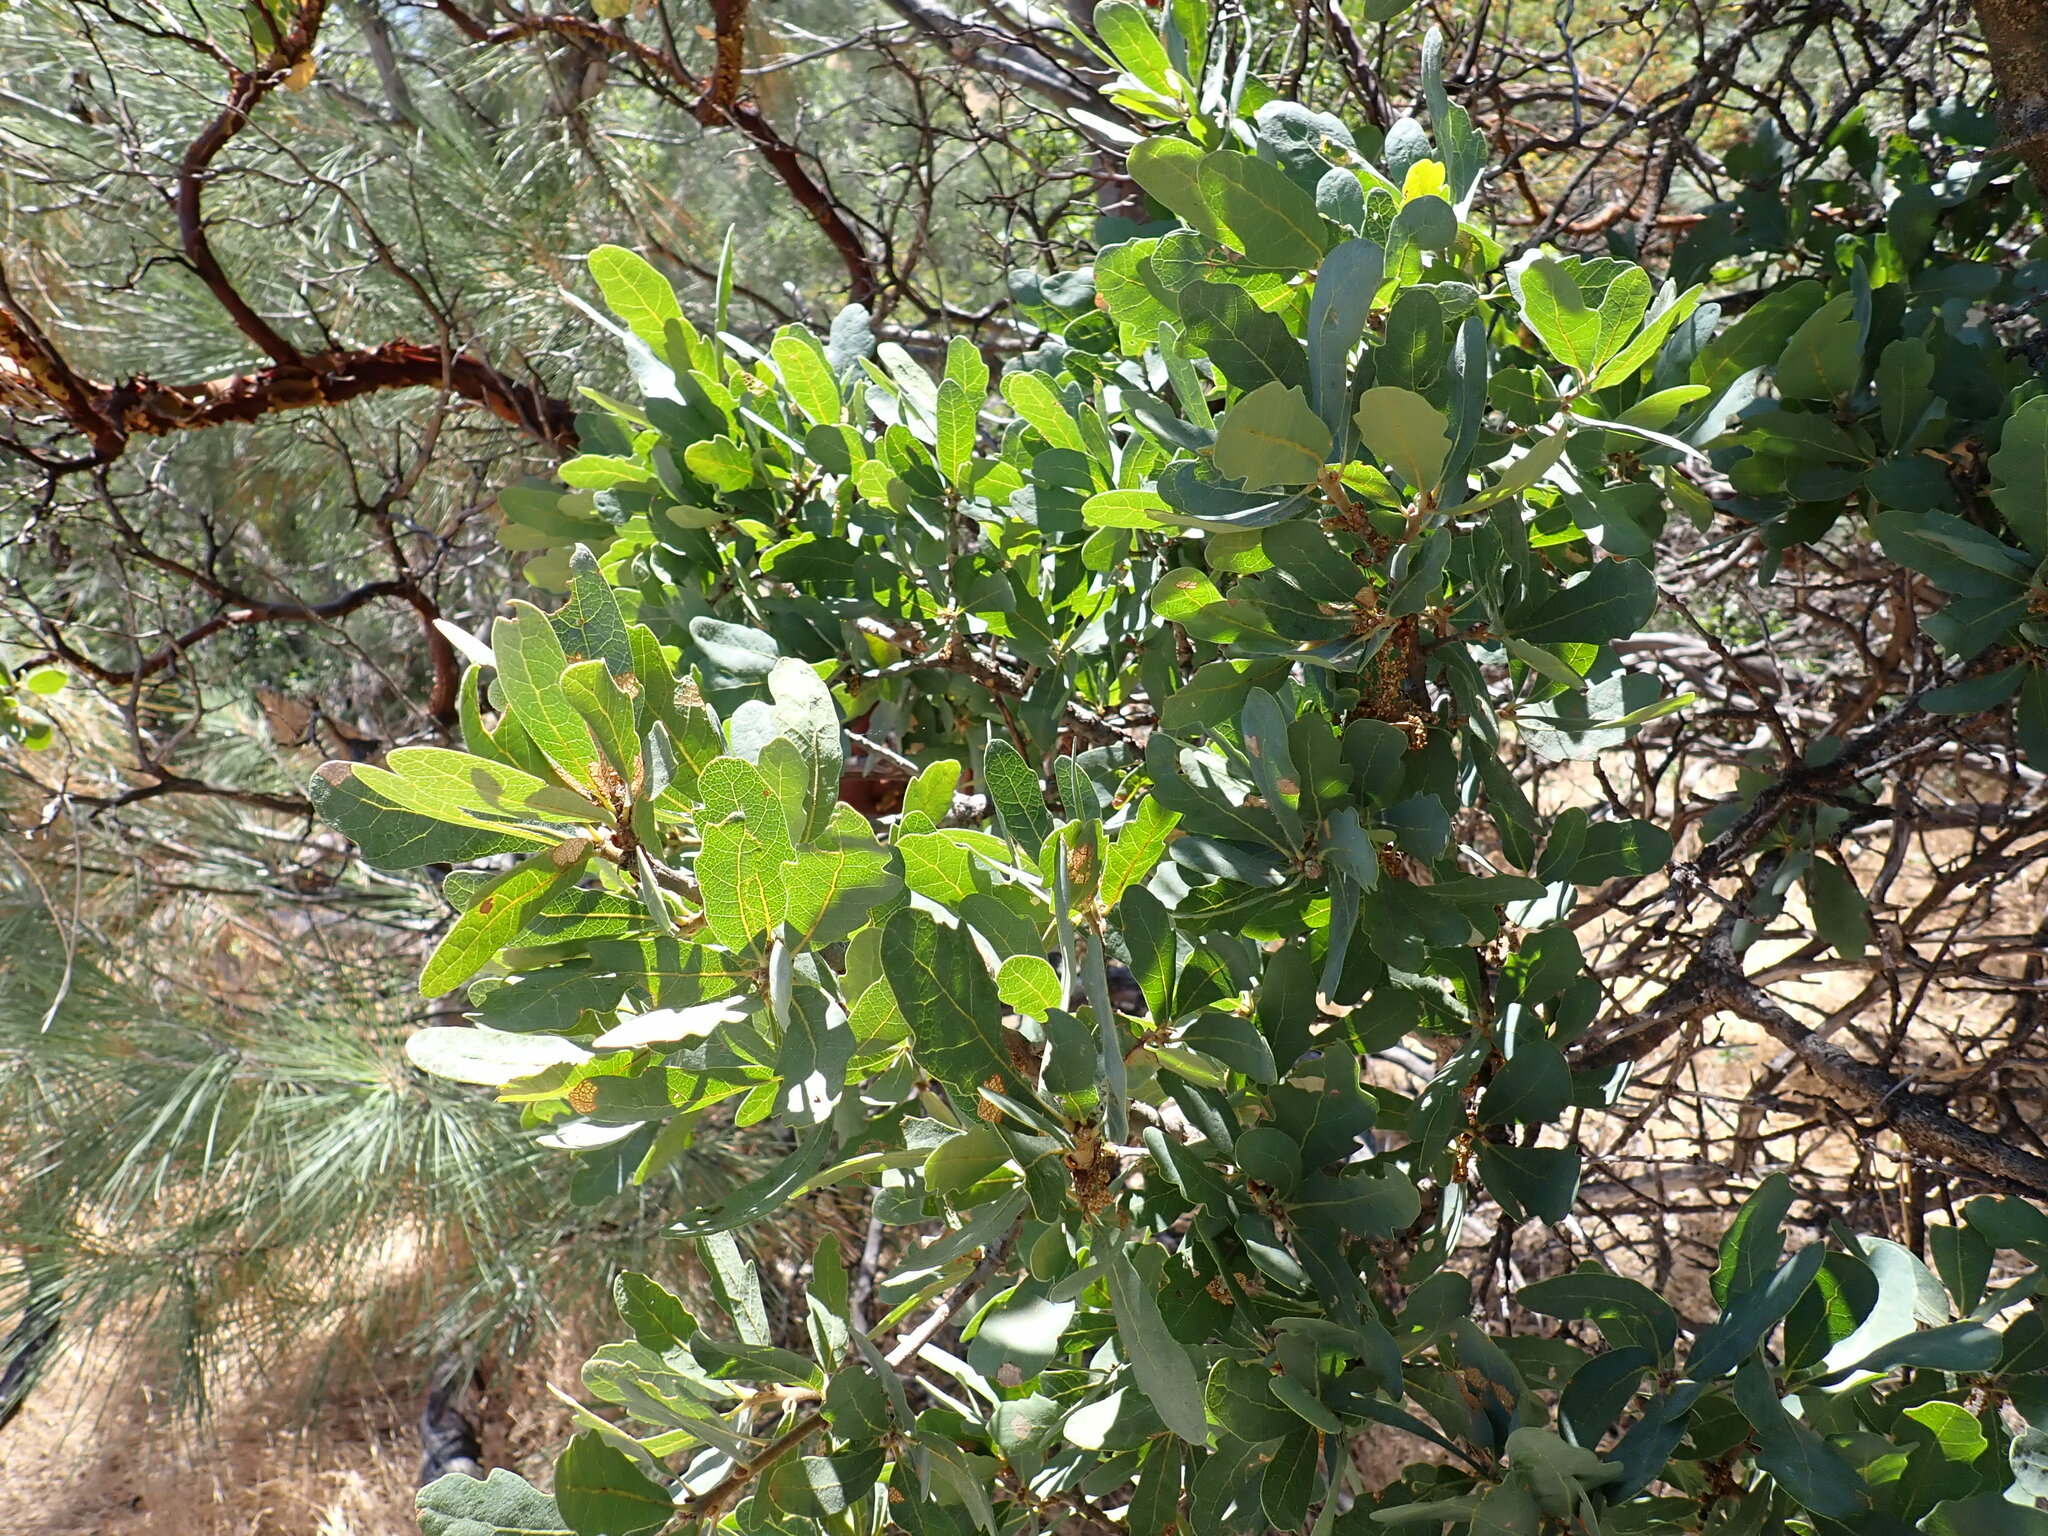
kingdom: Plantae
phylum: Tracheophyta
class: Magnoliopsida
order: Fagales
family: Fagaceae
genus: Quercus
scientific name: Quercus douglasii
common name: Blue oak
